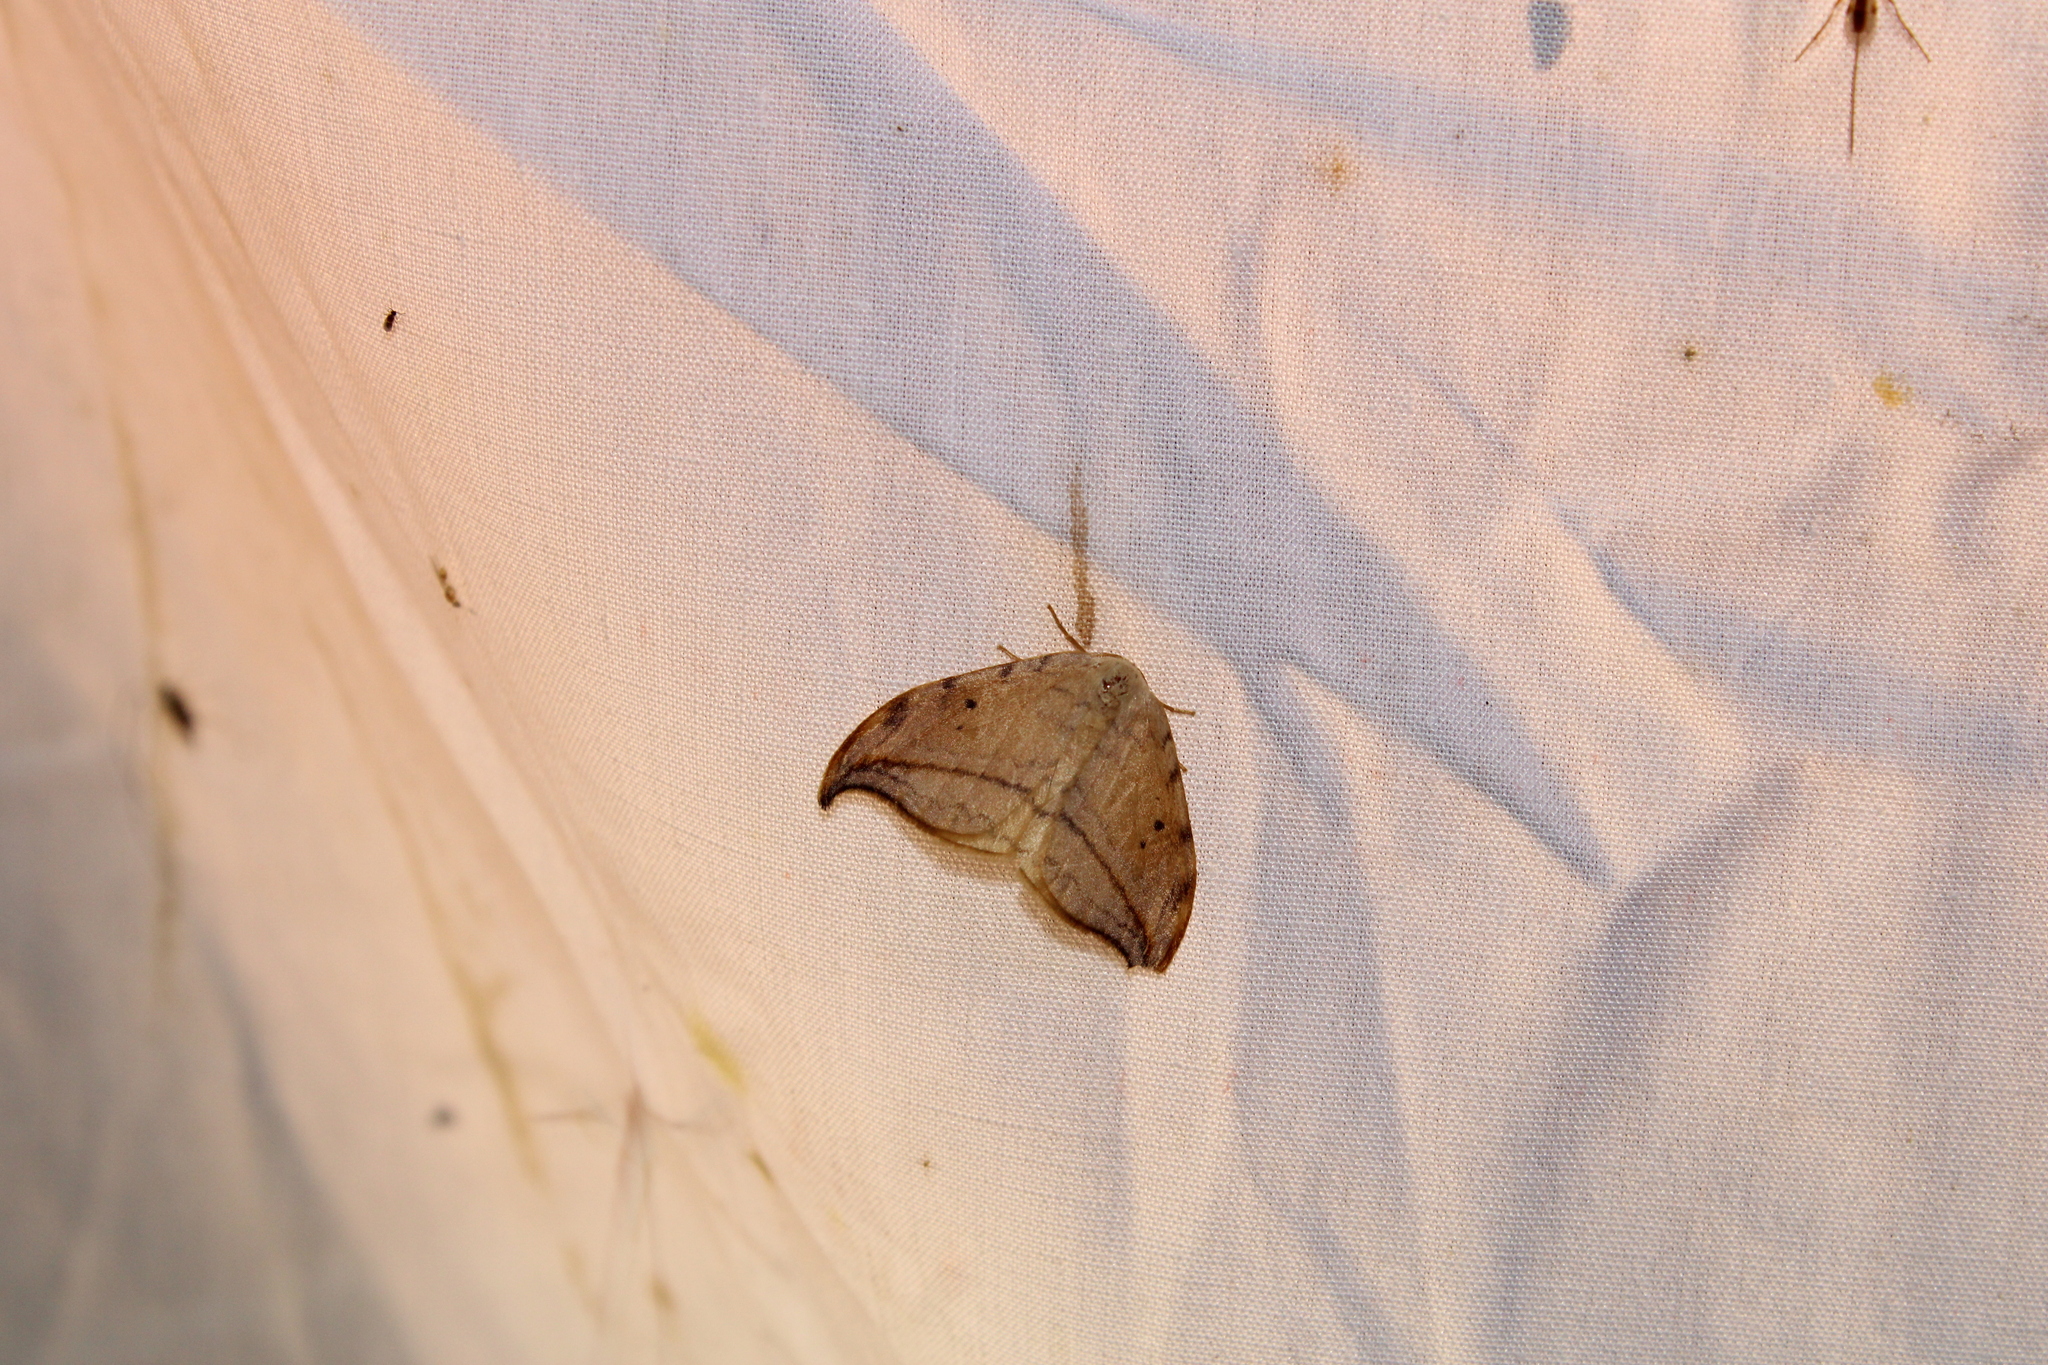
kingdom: Animalia
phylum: Arthropoda
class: Insecta
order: Lepidoptera
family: Drepanidae
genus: Drepana
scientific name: Drepana arcuata
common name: Arched hooktip moth
